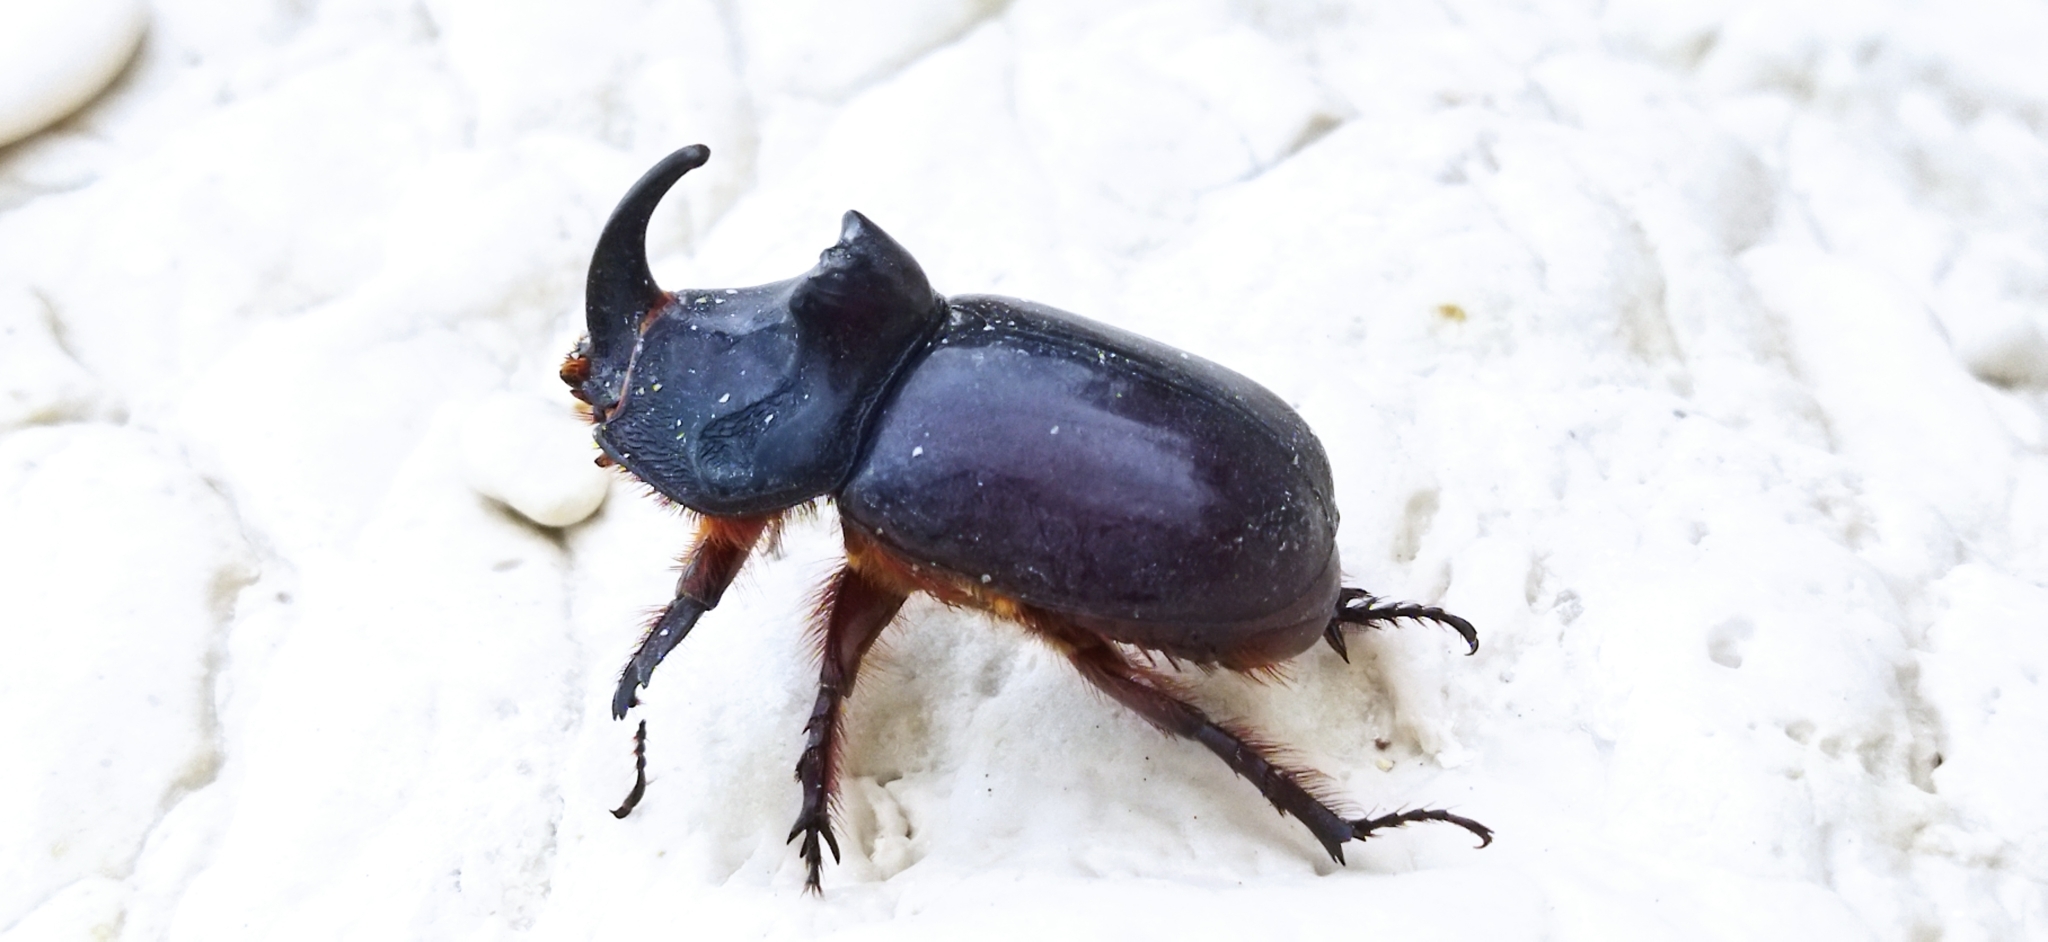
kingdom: Animalia
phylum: Arthropoda
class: Insecta
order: Coleoptera
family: Scarabaeidae
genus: Oryctes
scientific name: Oryctes nasicornis
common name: European rhinoceros beetle
